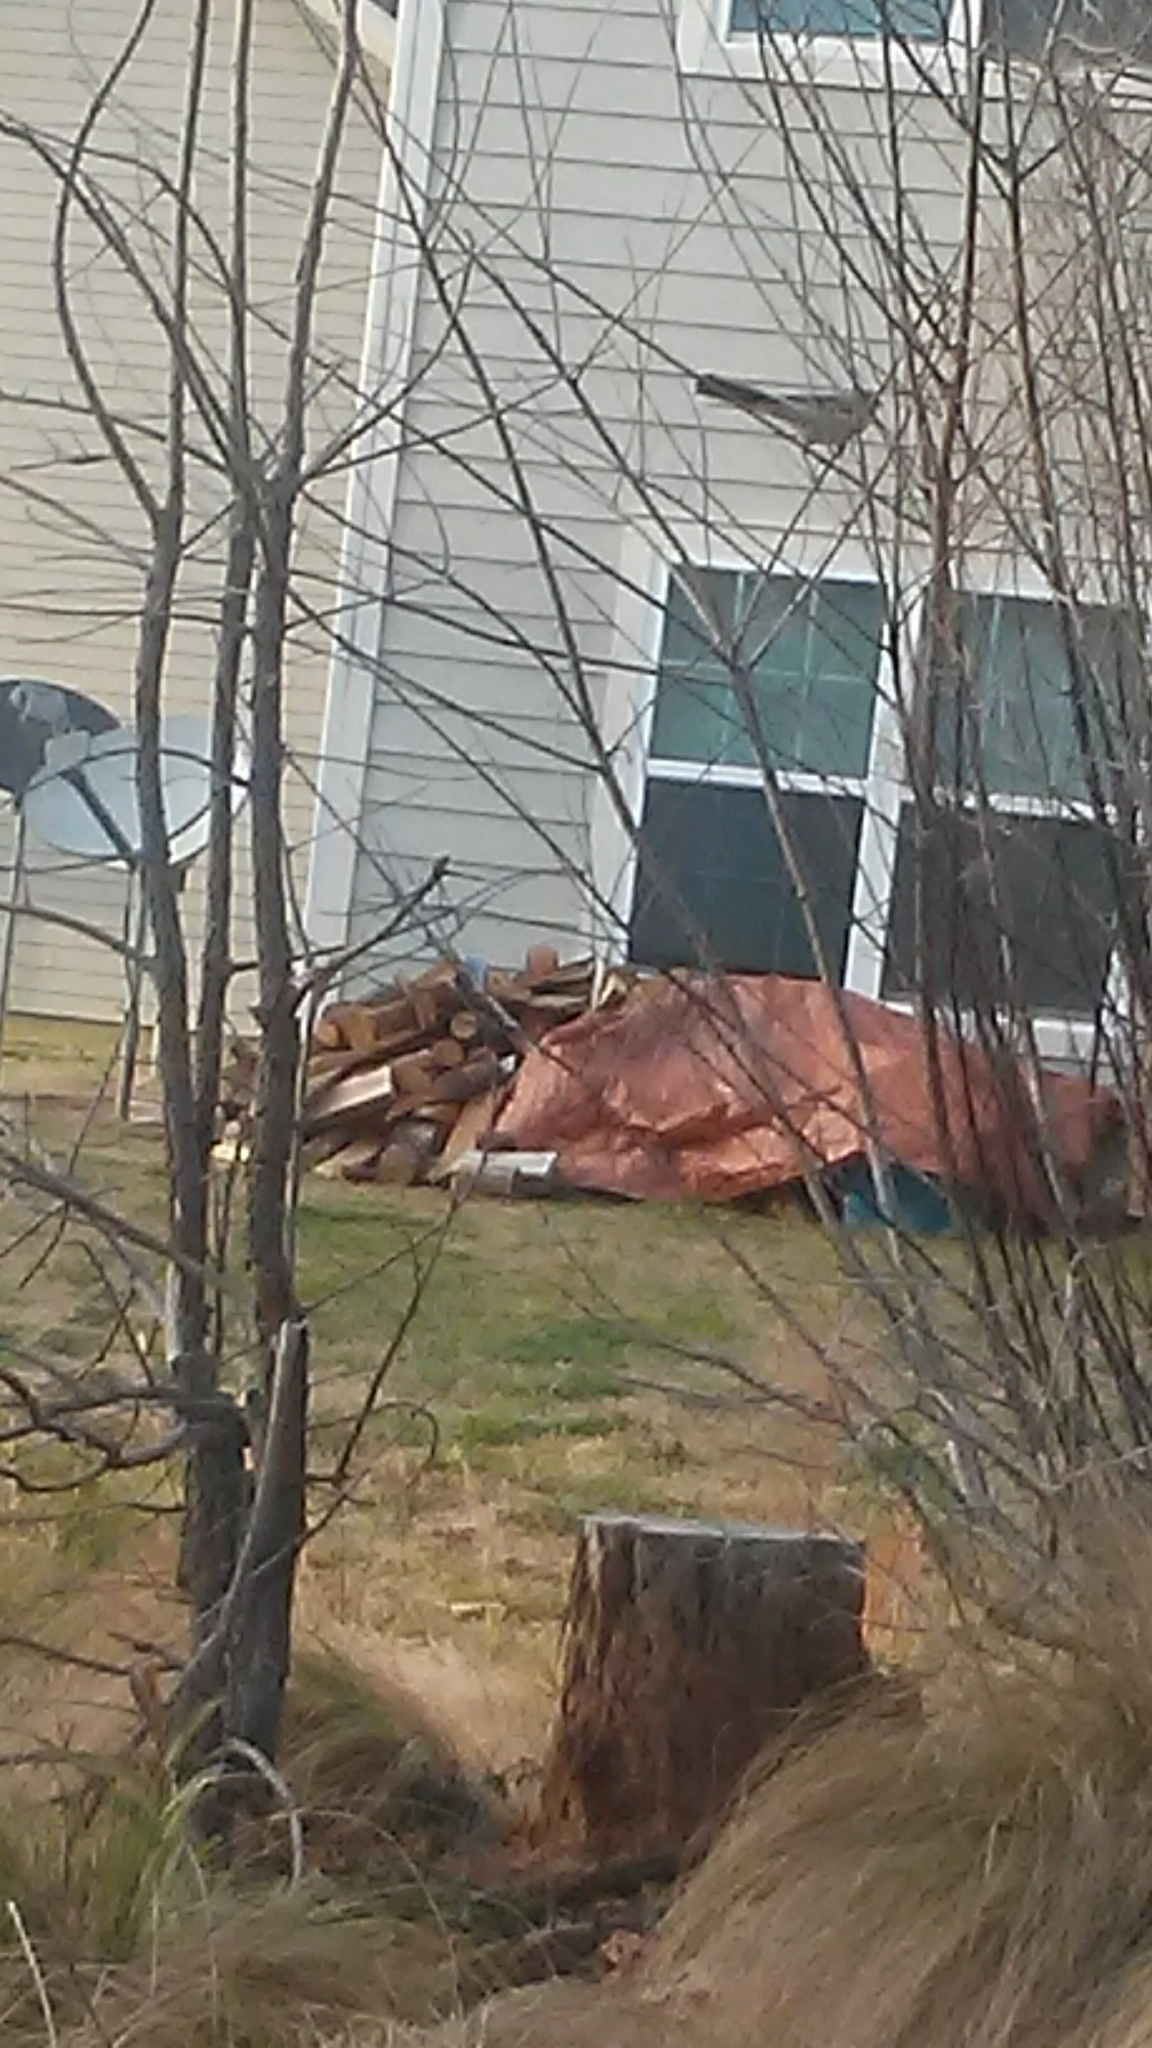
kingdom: Animalia
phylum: Chordata
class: Aves
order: Passeriformes
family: Mimidae
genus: Mimus
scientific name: Mimus polyglottos
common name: Northern mockingbird
